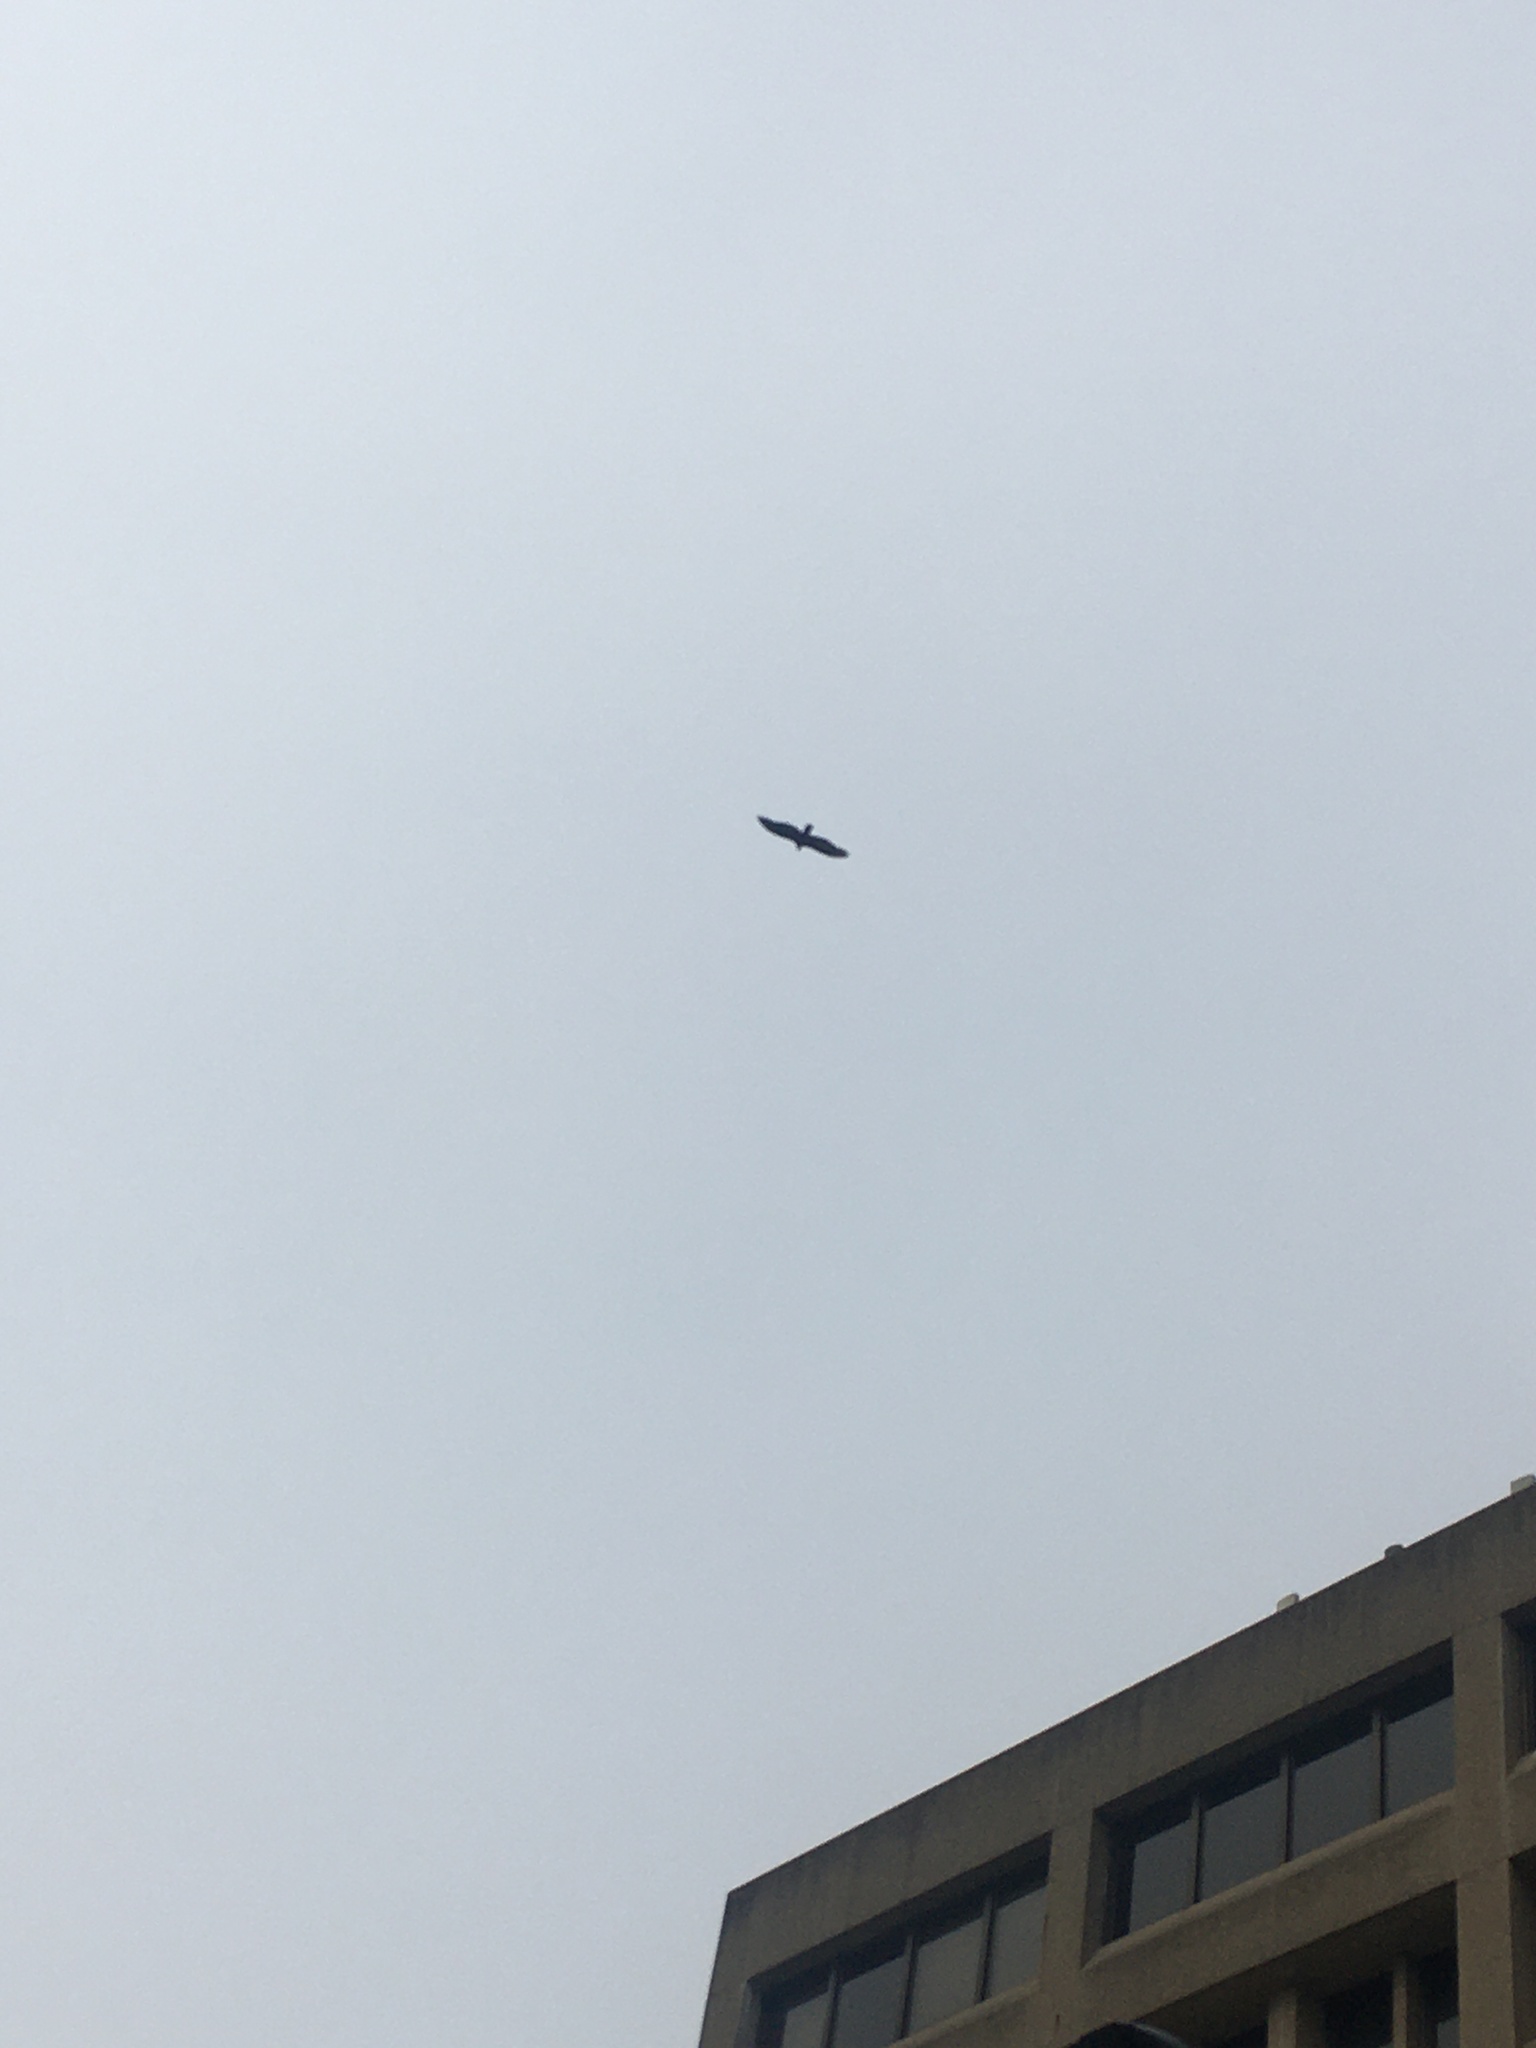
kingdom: Animalia
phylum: Chordata
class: Aves
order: Accipitriformes
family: Cathartidae
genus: Cathartes
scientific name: Cathartes aura
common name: Turkey vulture
